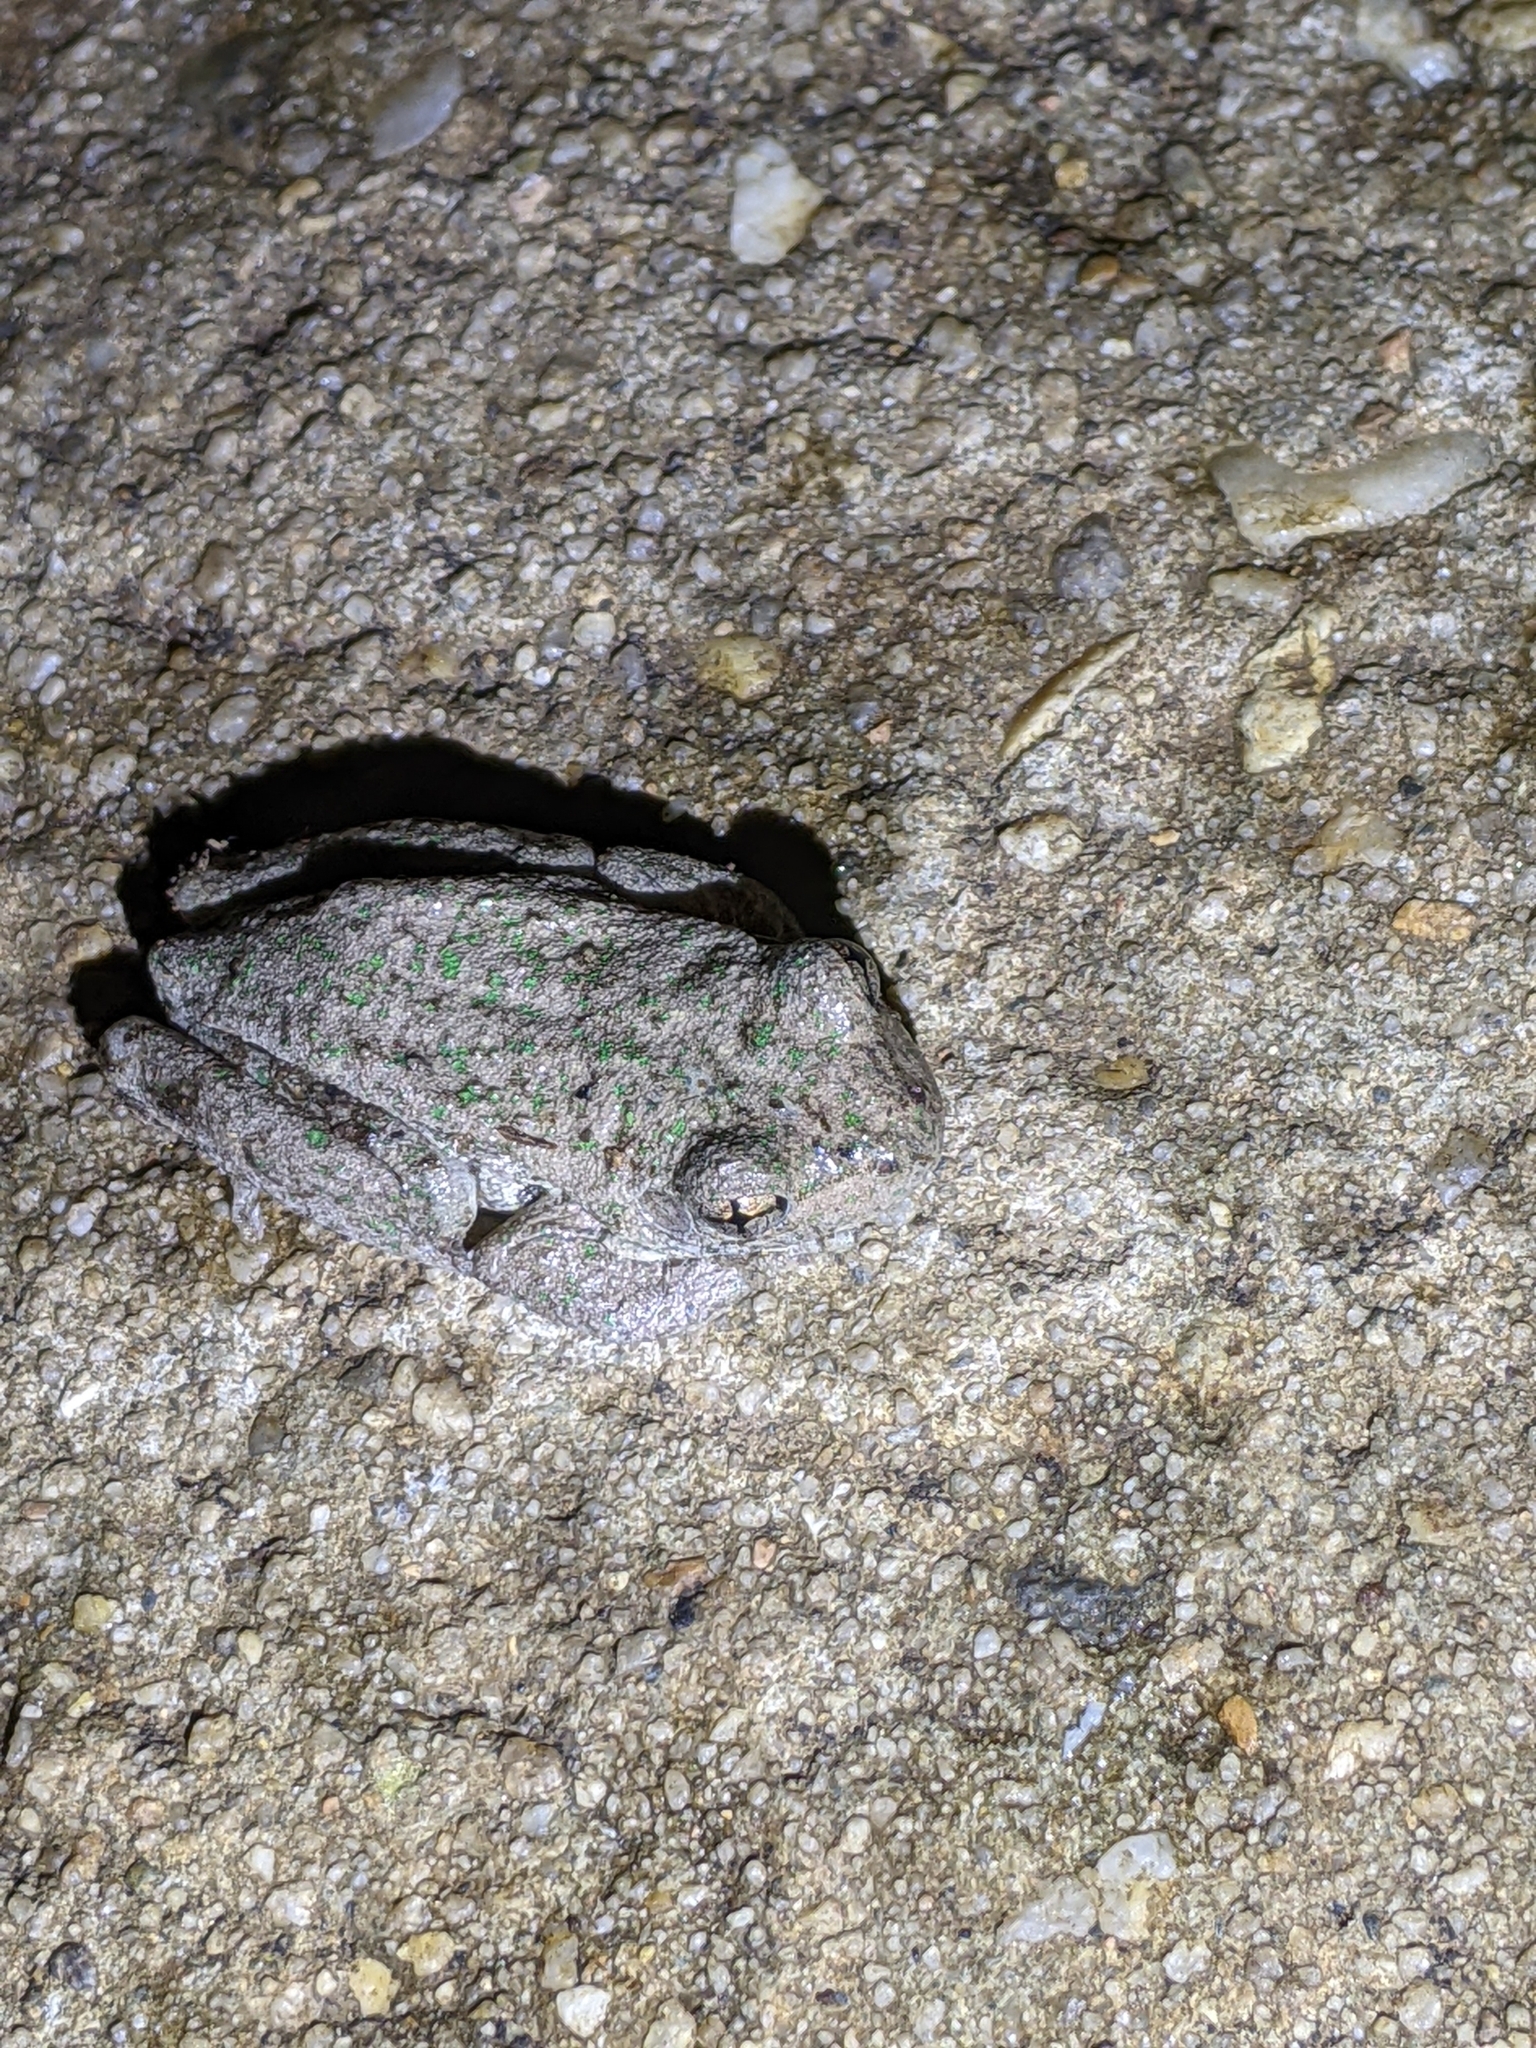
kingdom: Animalia
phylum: Chordata
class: Amphibia
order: Anura
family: Pelodryadidae
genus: Litoria
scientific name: Litoria peronii
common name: Emerald spotted treefrog
